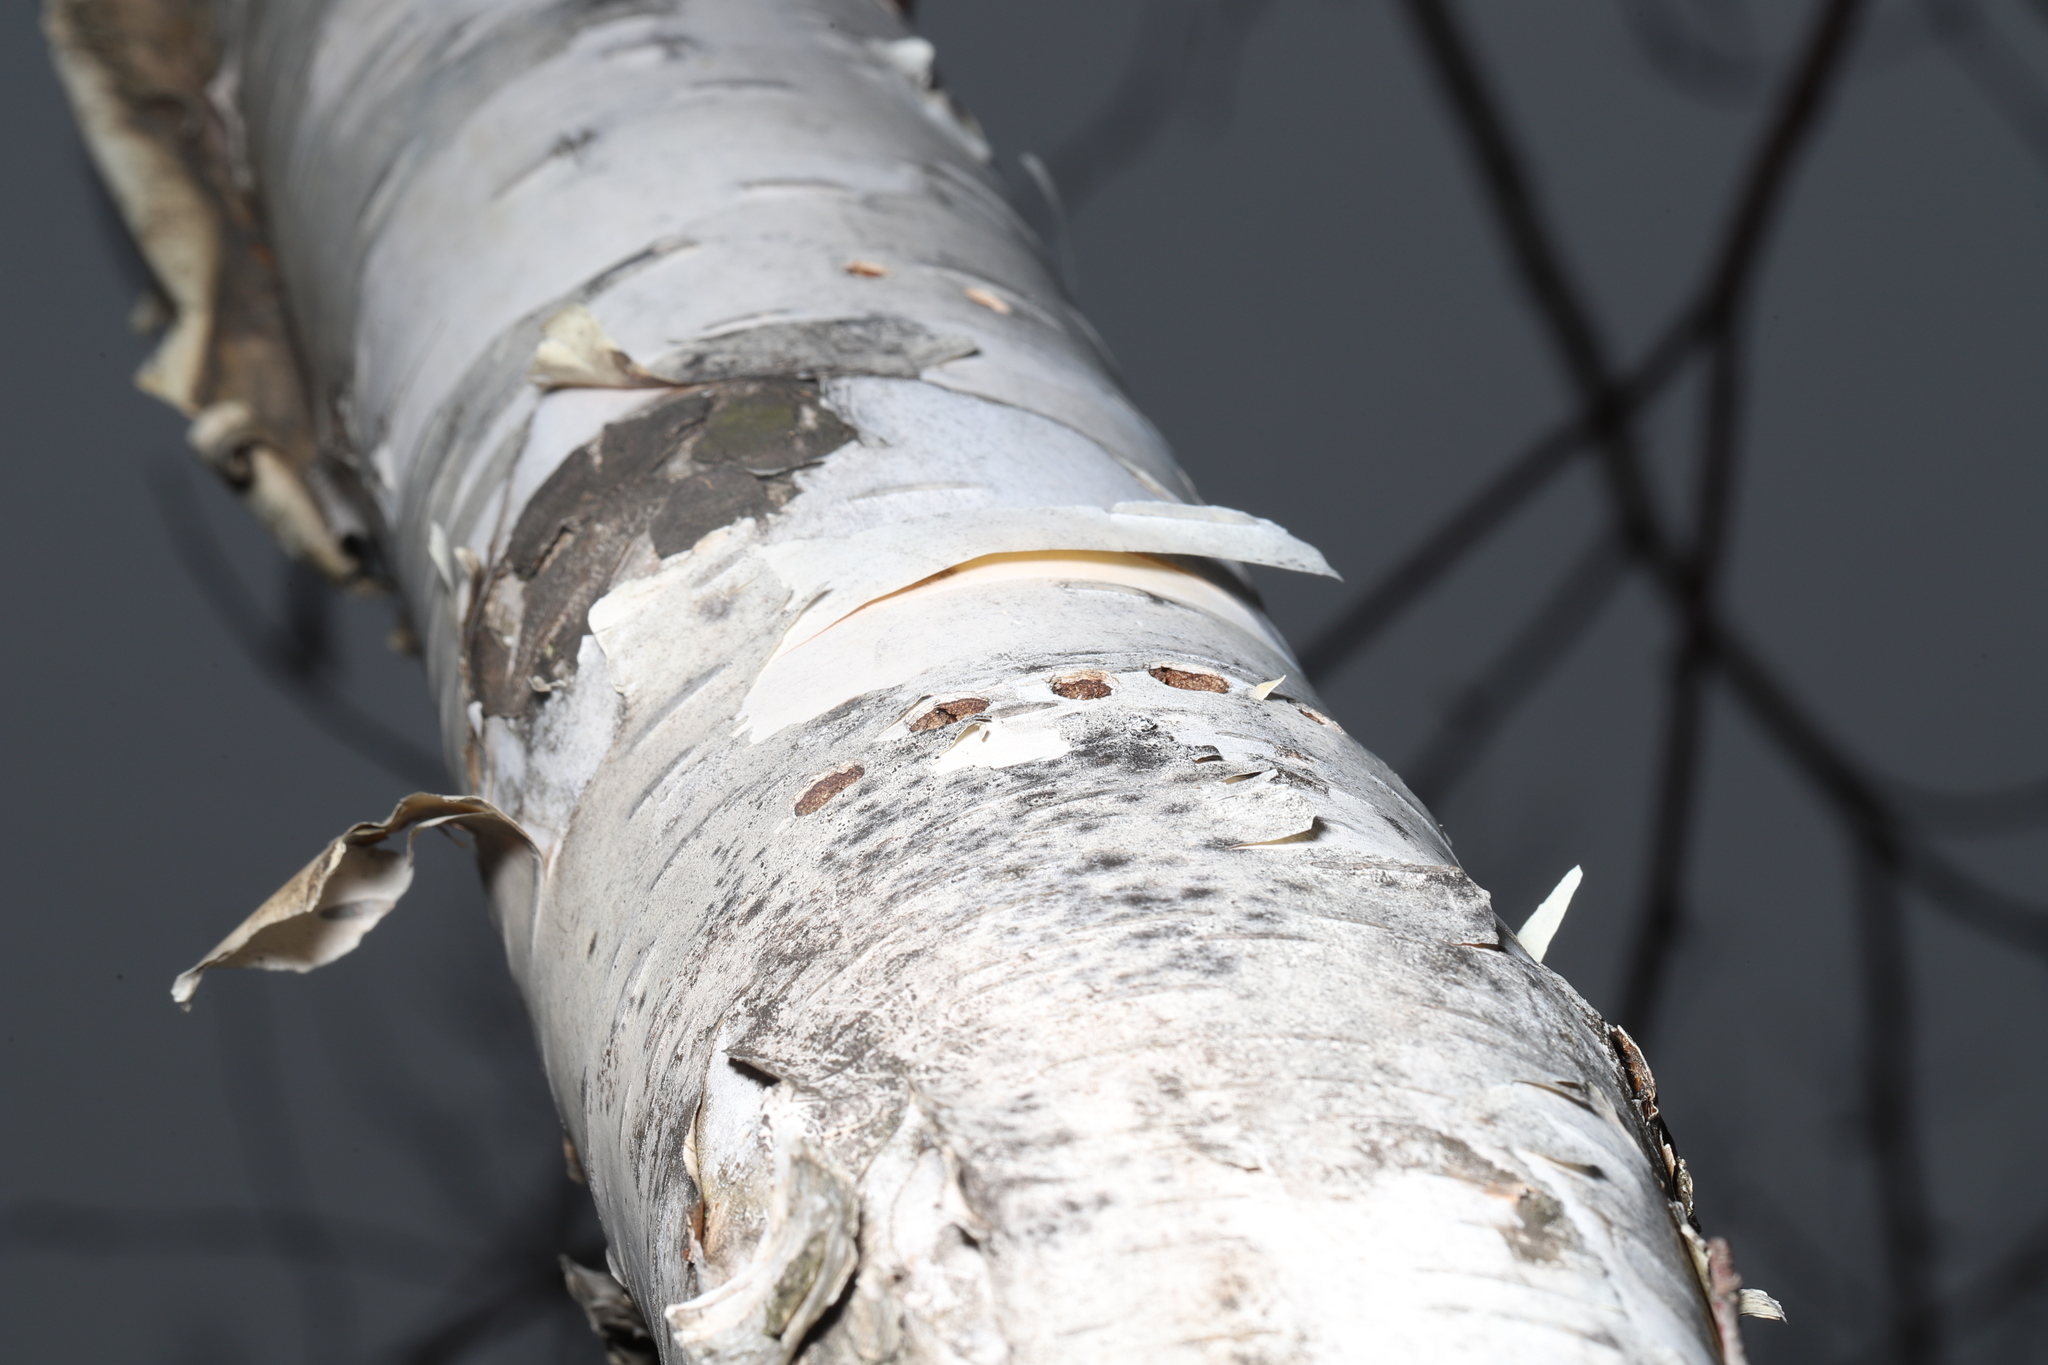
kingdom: Animalia
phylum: Chordata
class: Aves
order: Piciformes
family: Picidae
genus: Sphyrapicus
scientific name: Sphyrapicus varius
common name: Yellow-bellied sapsucker
